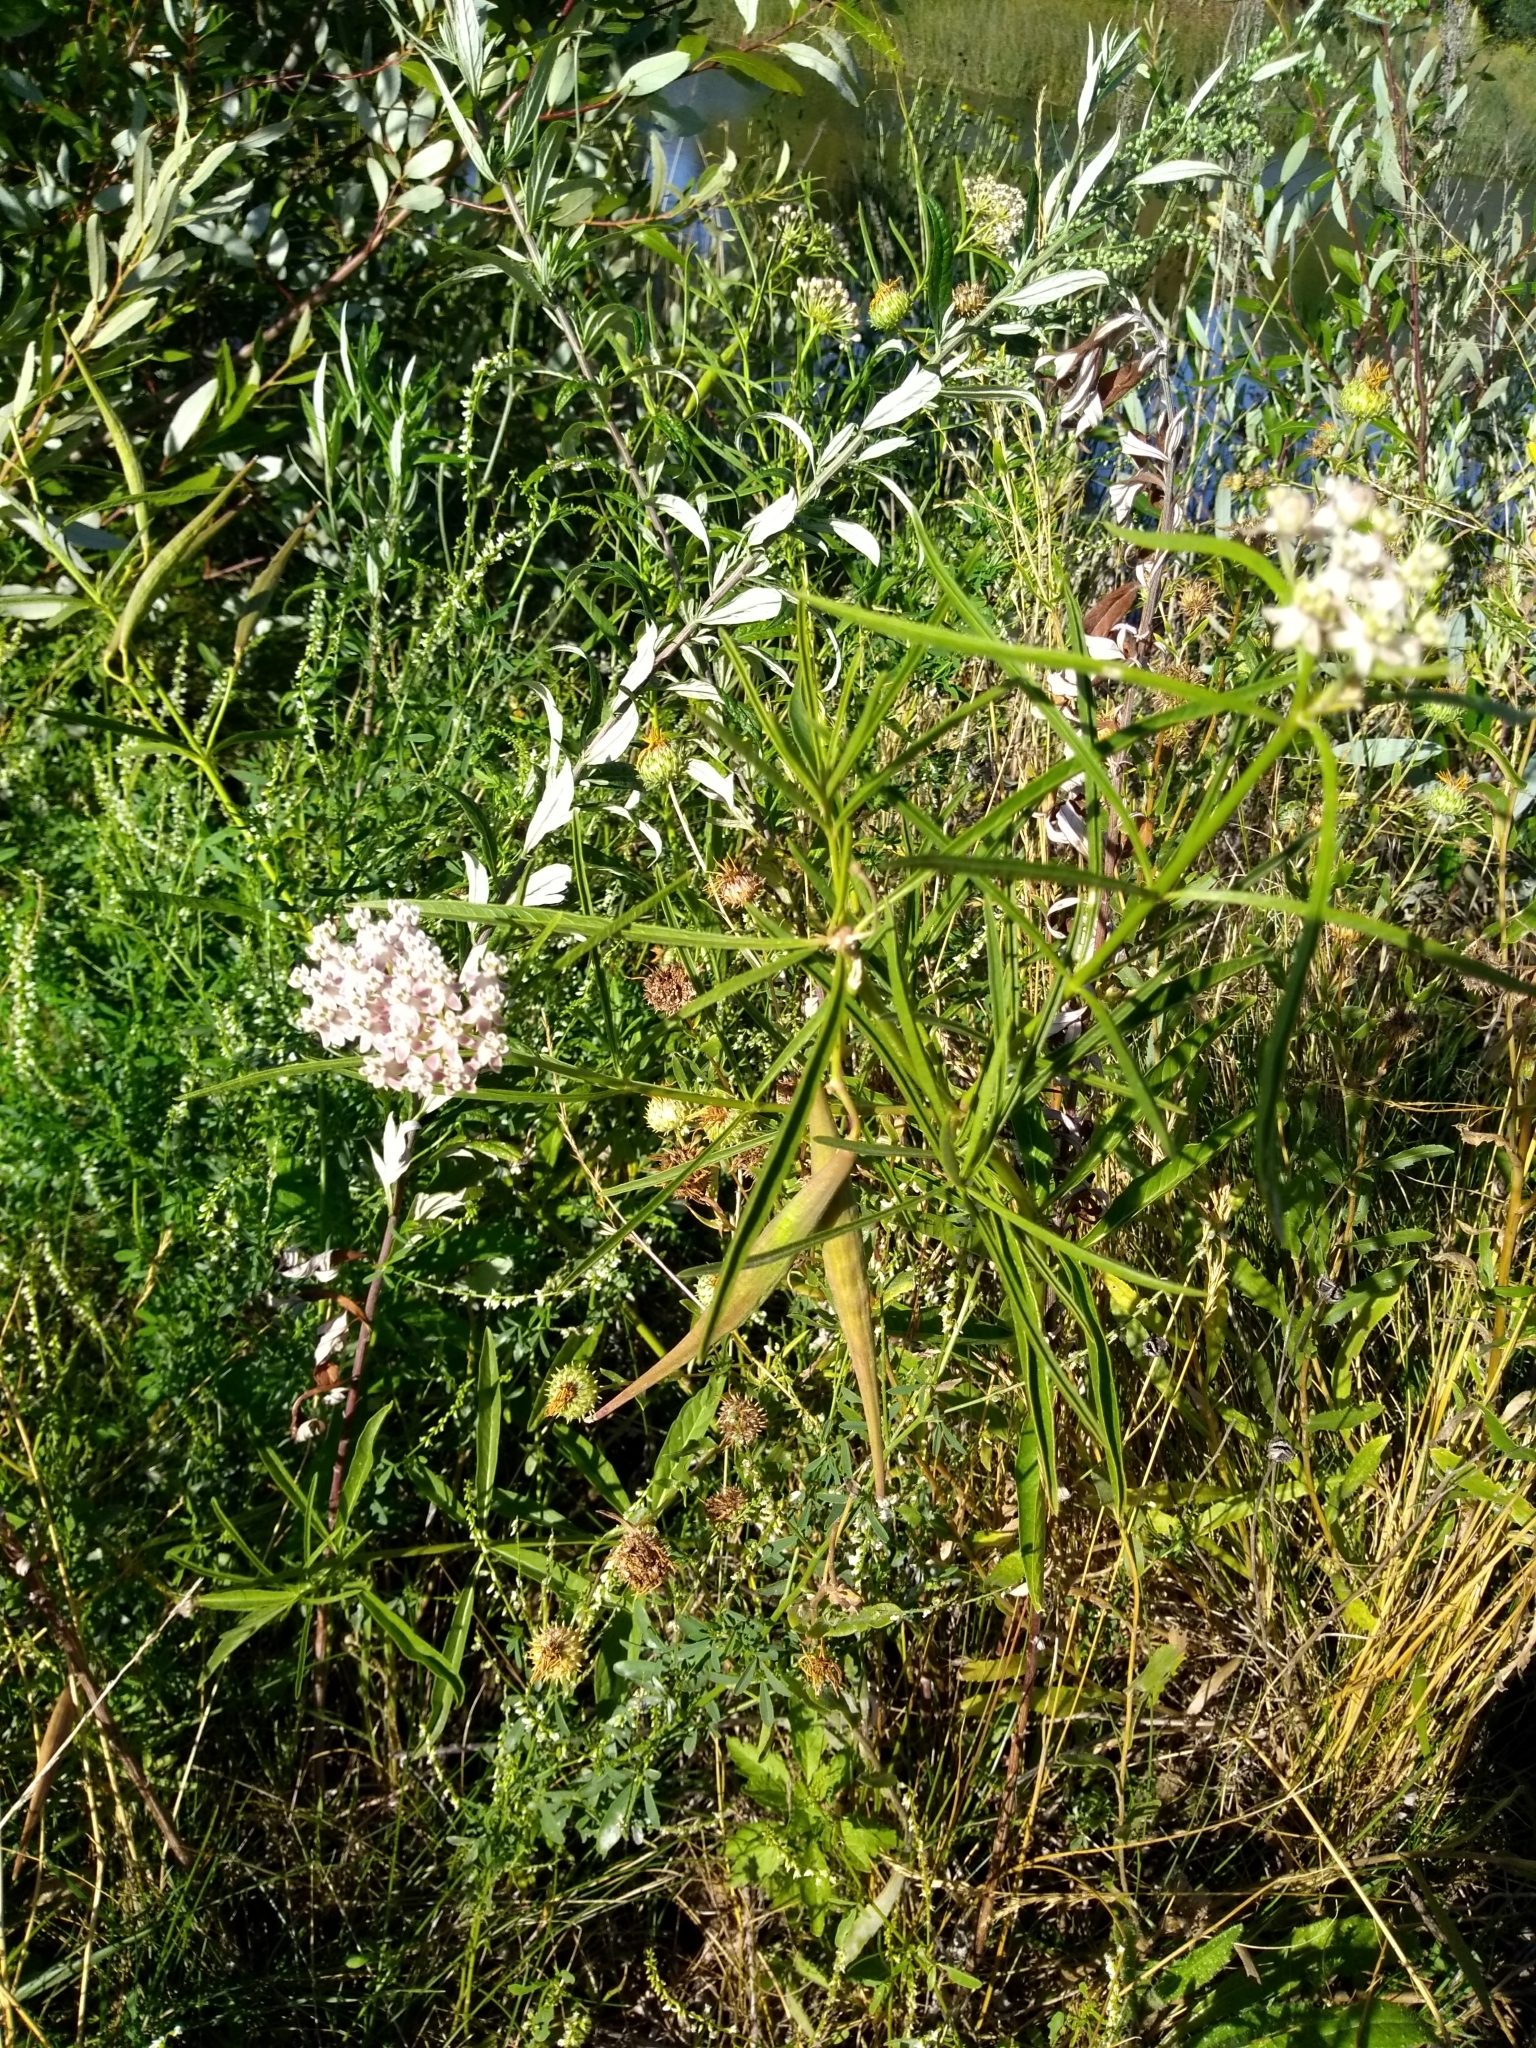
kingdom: Plantae
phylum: Tracheophyta
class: Magnoliopsida
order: Gentianales
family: Apocynaceae
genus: Asclepias
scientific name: Asclepias fascicularis
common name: Mexican milkweed
